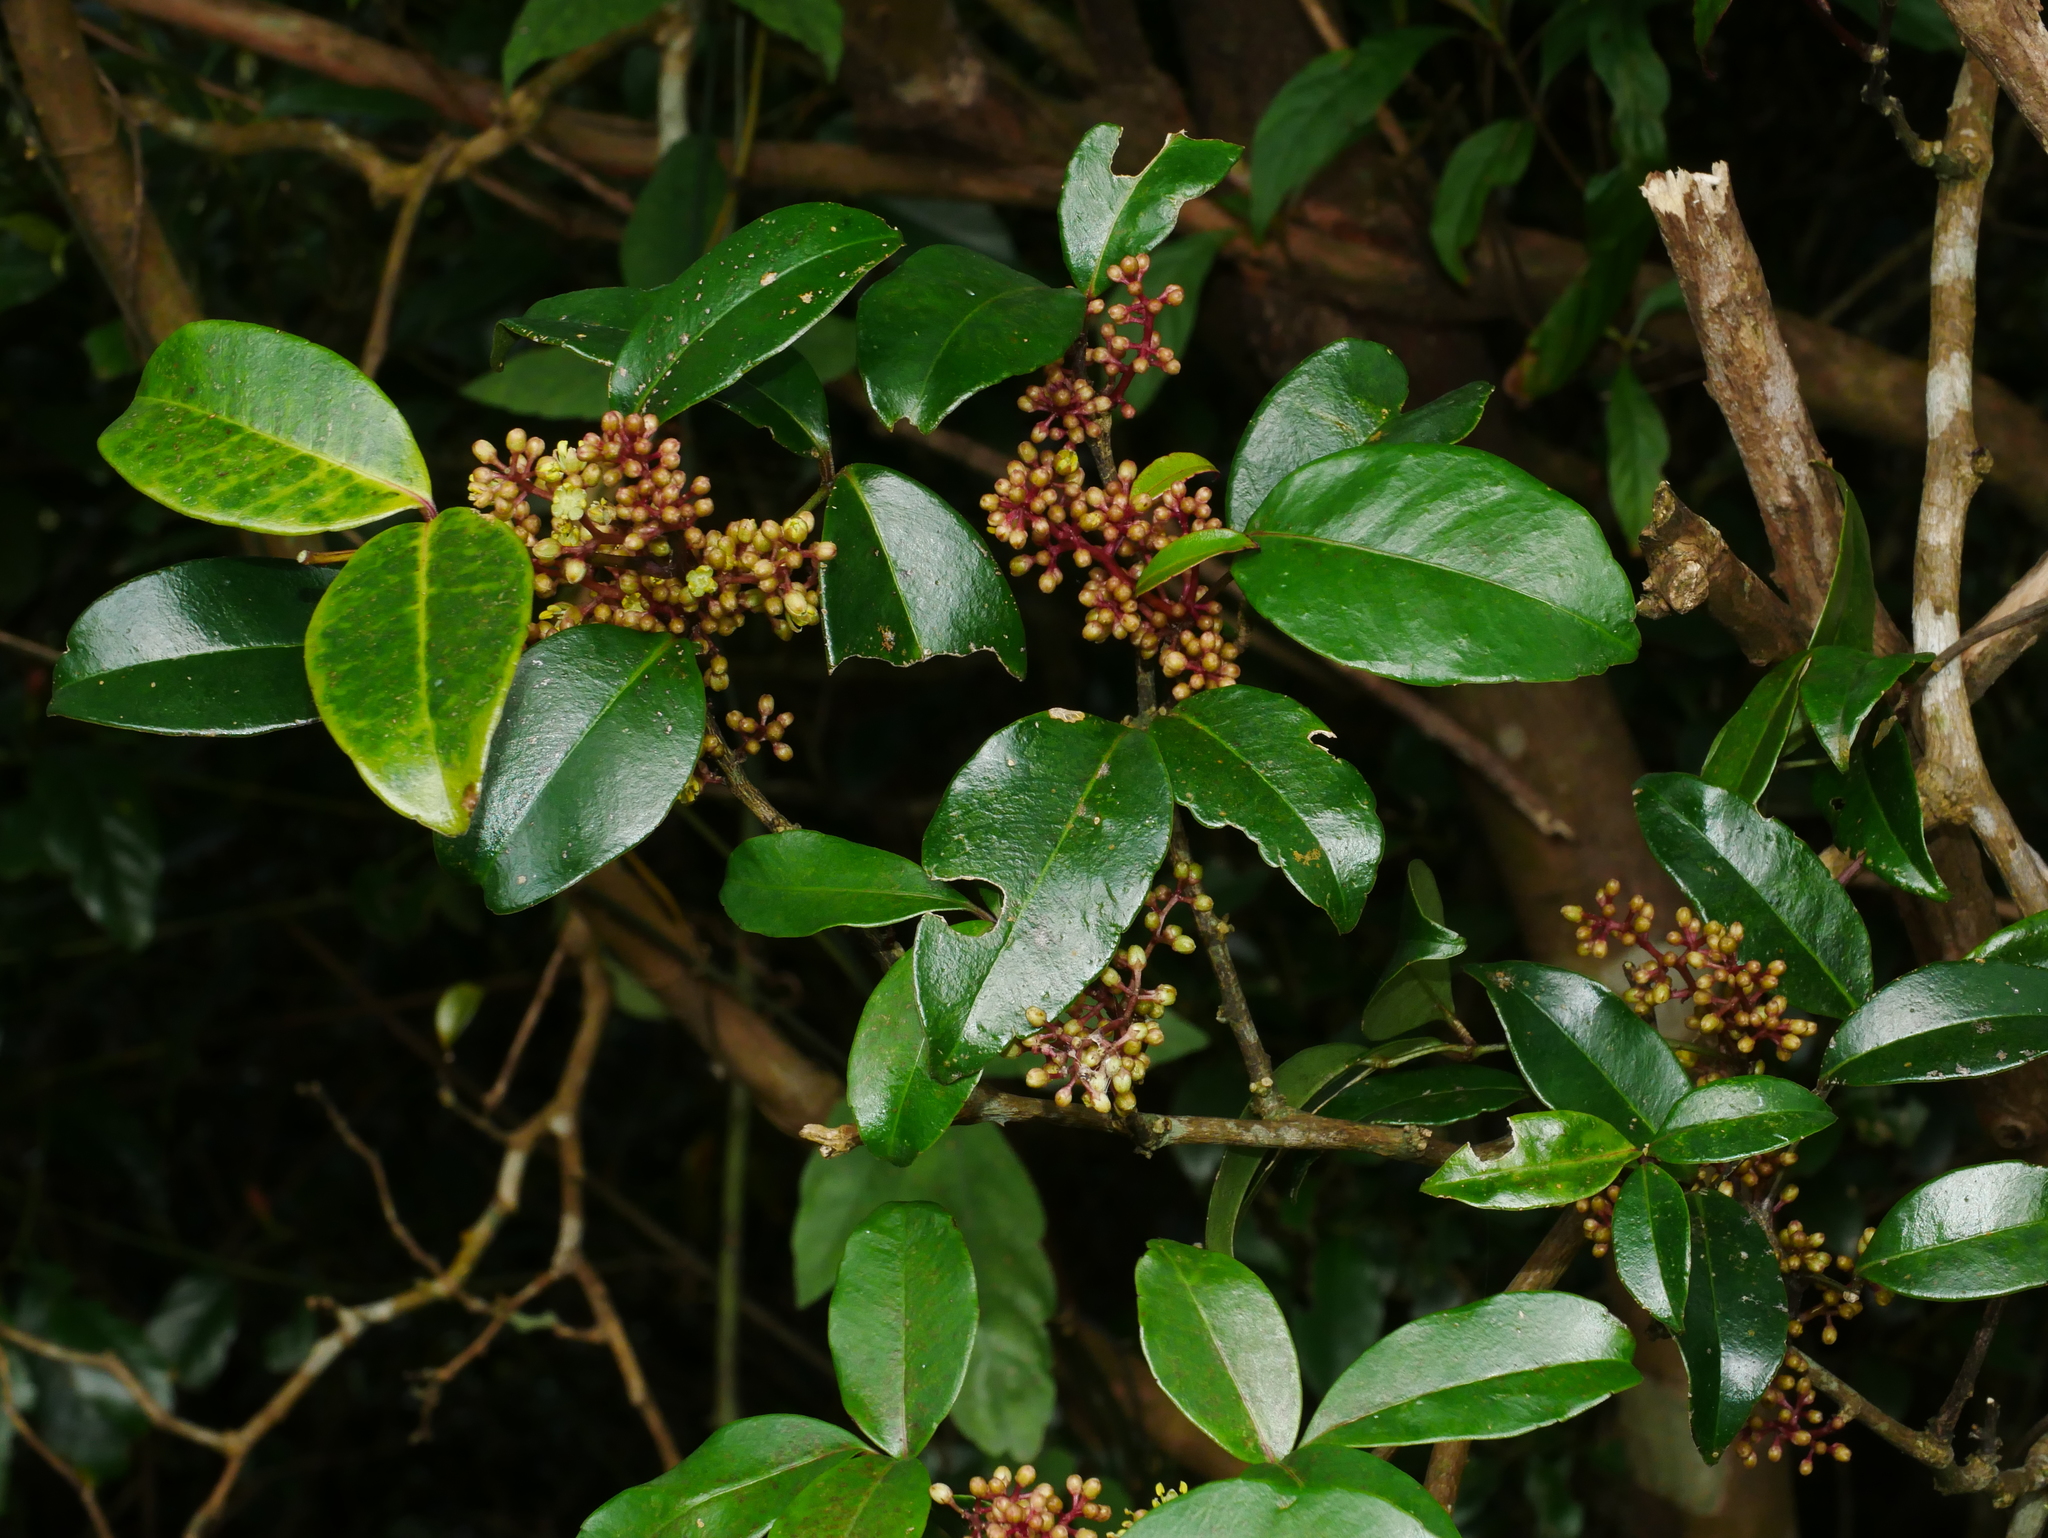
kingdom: Plantae
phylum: Tracheophyta
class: Magnoliopsida
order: Sapindales
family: Rutaceae
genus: Zanthoxylum
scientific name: Zanthoxylum nitidum
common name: Shiny-leaf prickly-ash
